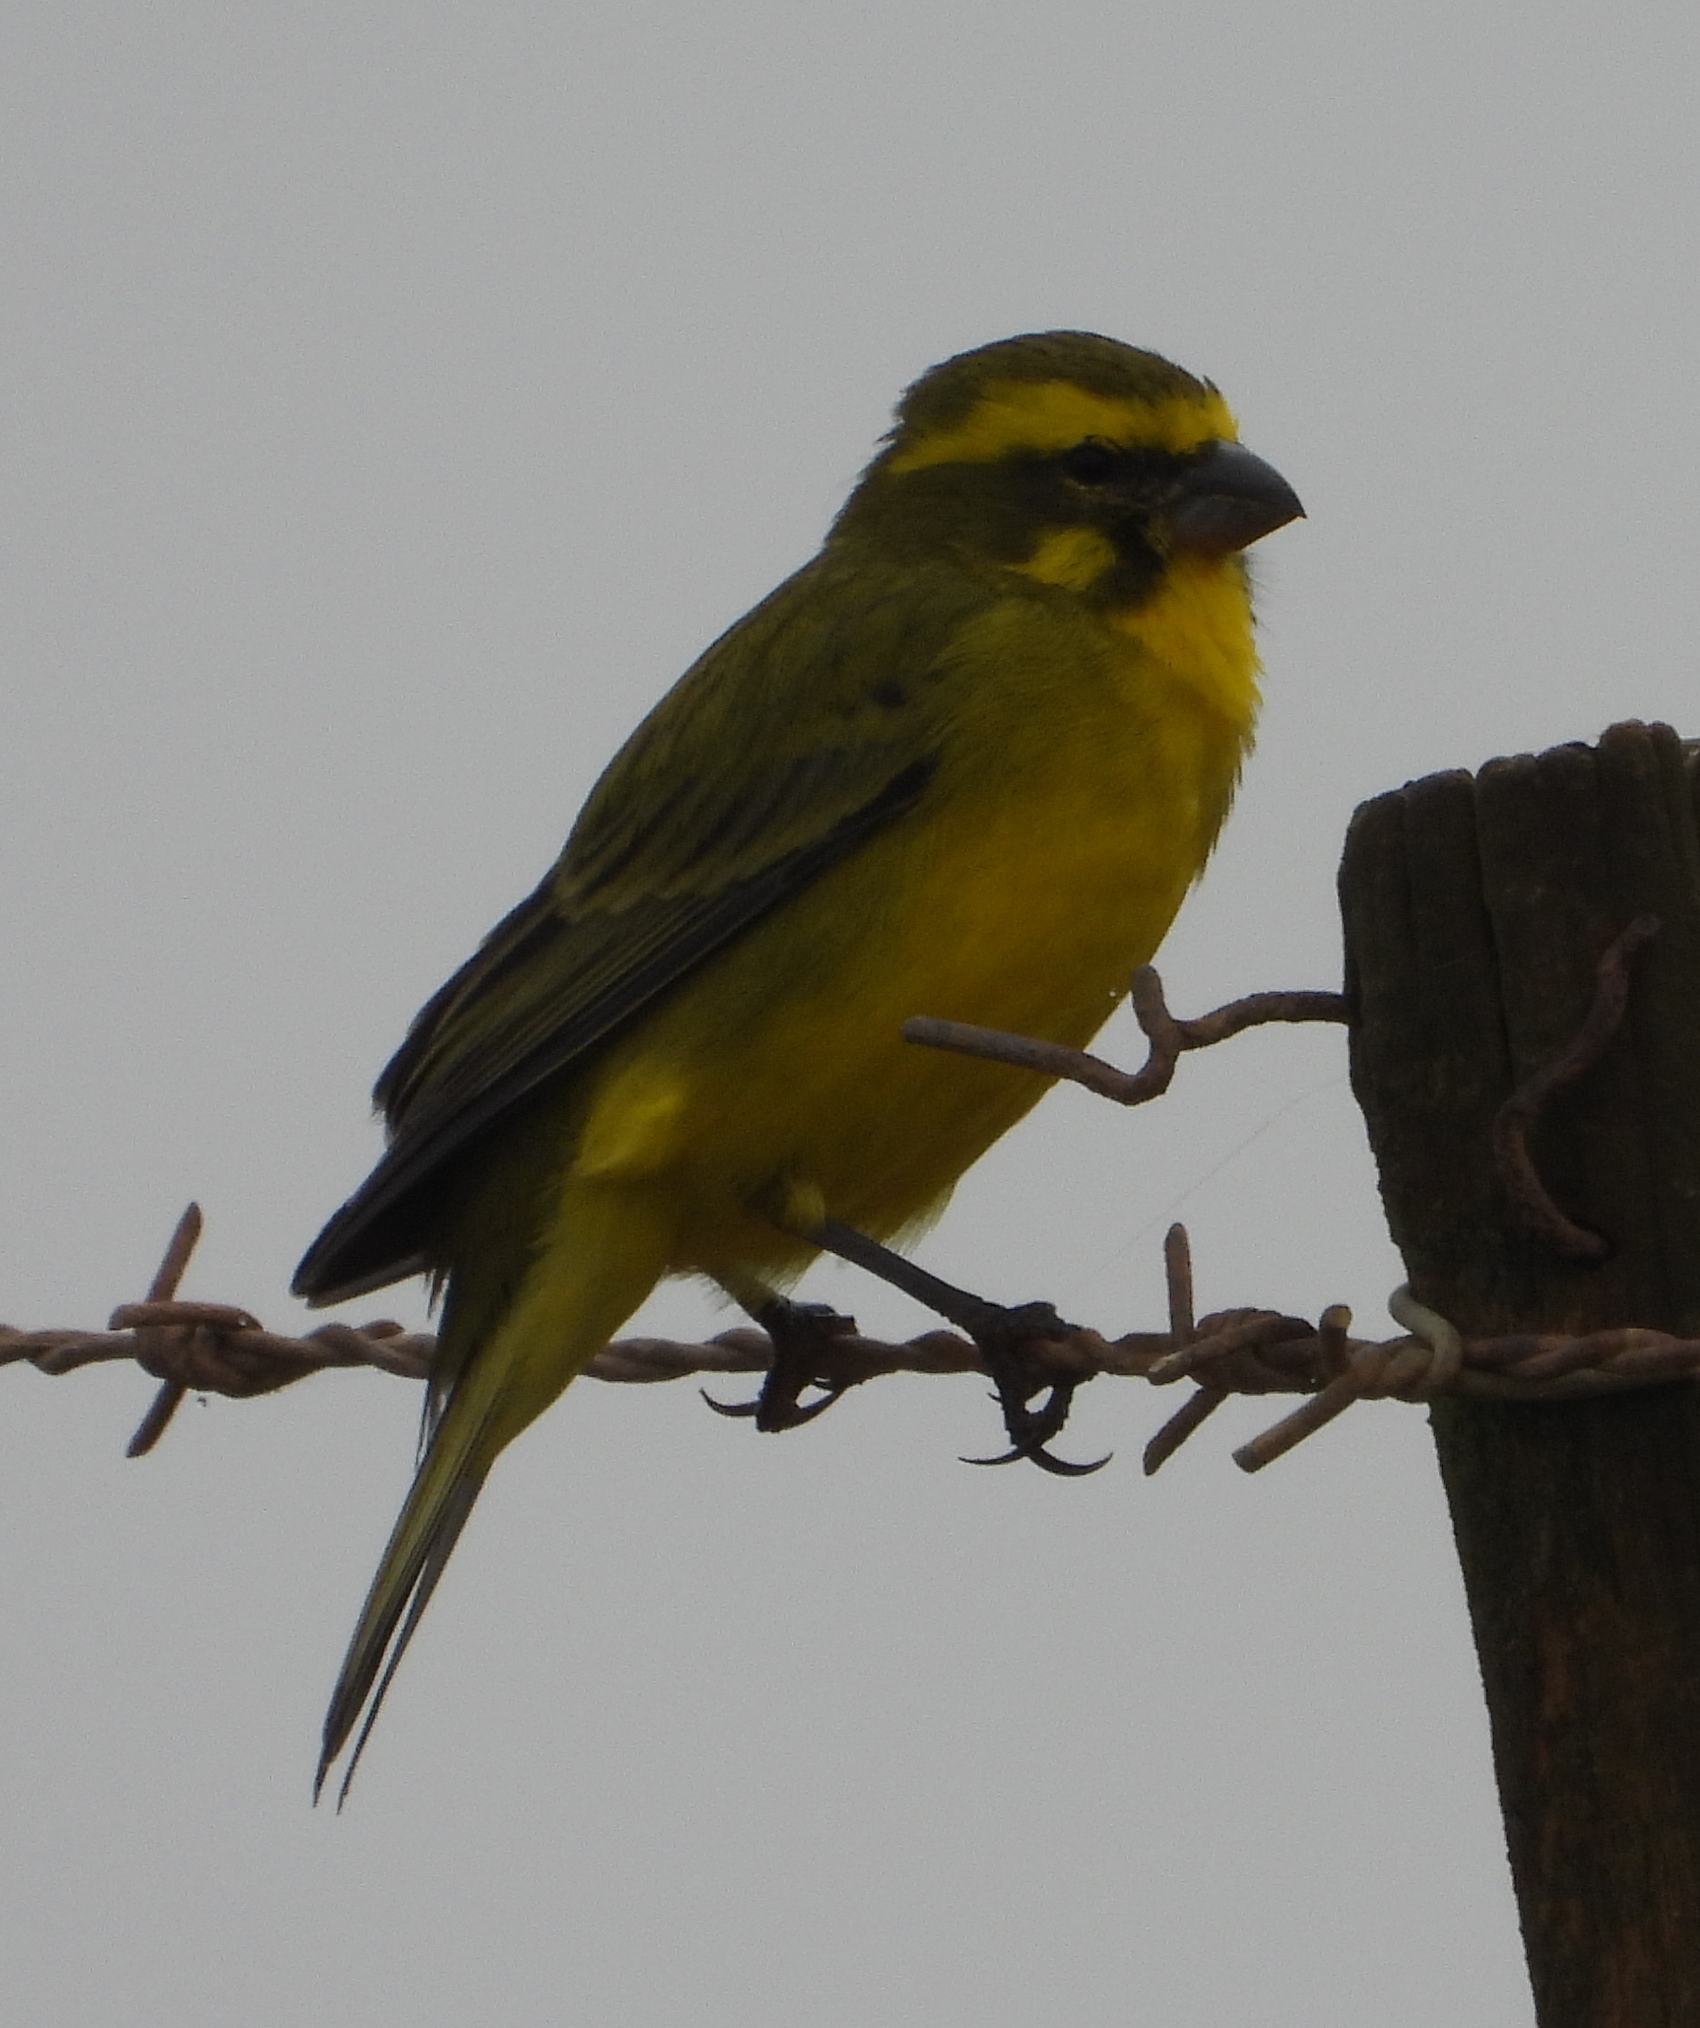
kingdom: Animalia
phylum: Chordata
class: Aves
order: Passeriformes
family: Fringillidae
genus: Crithagra
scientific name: Crithagra flaviventris
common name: Yellow canary
